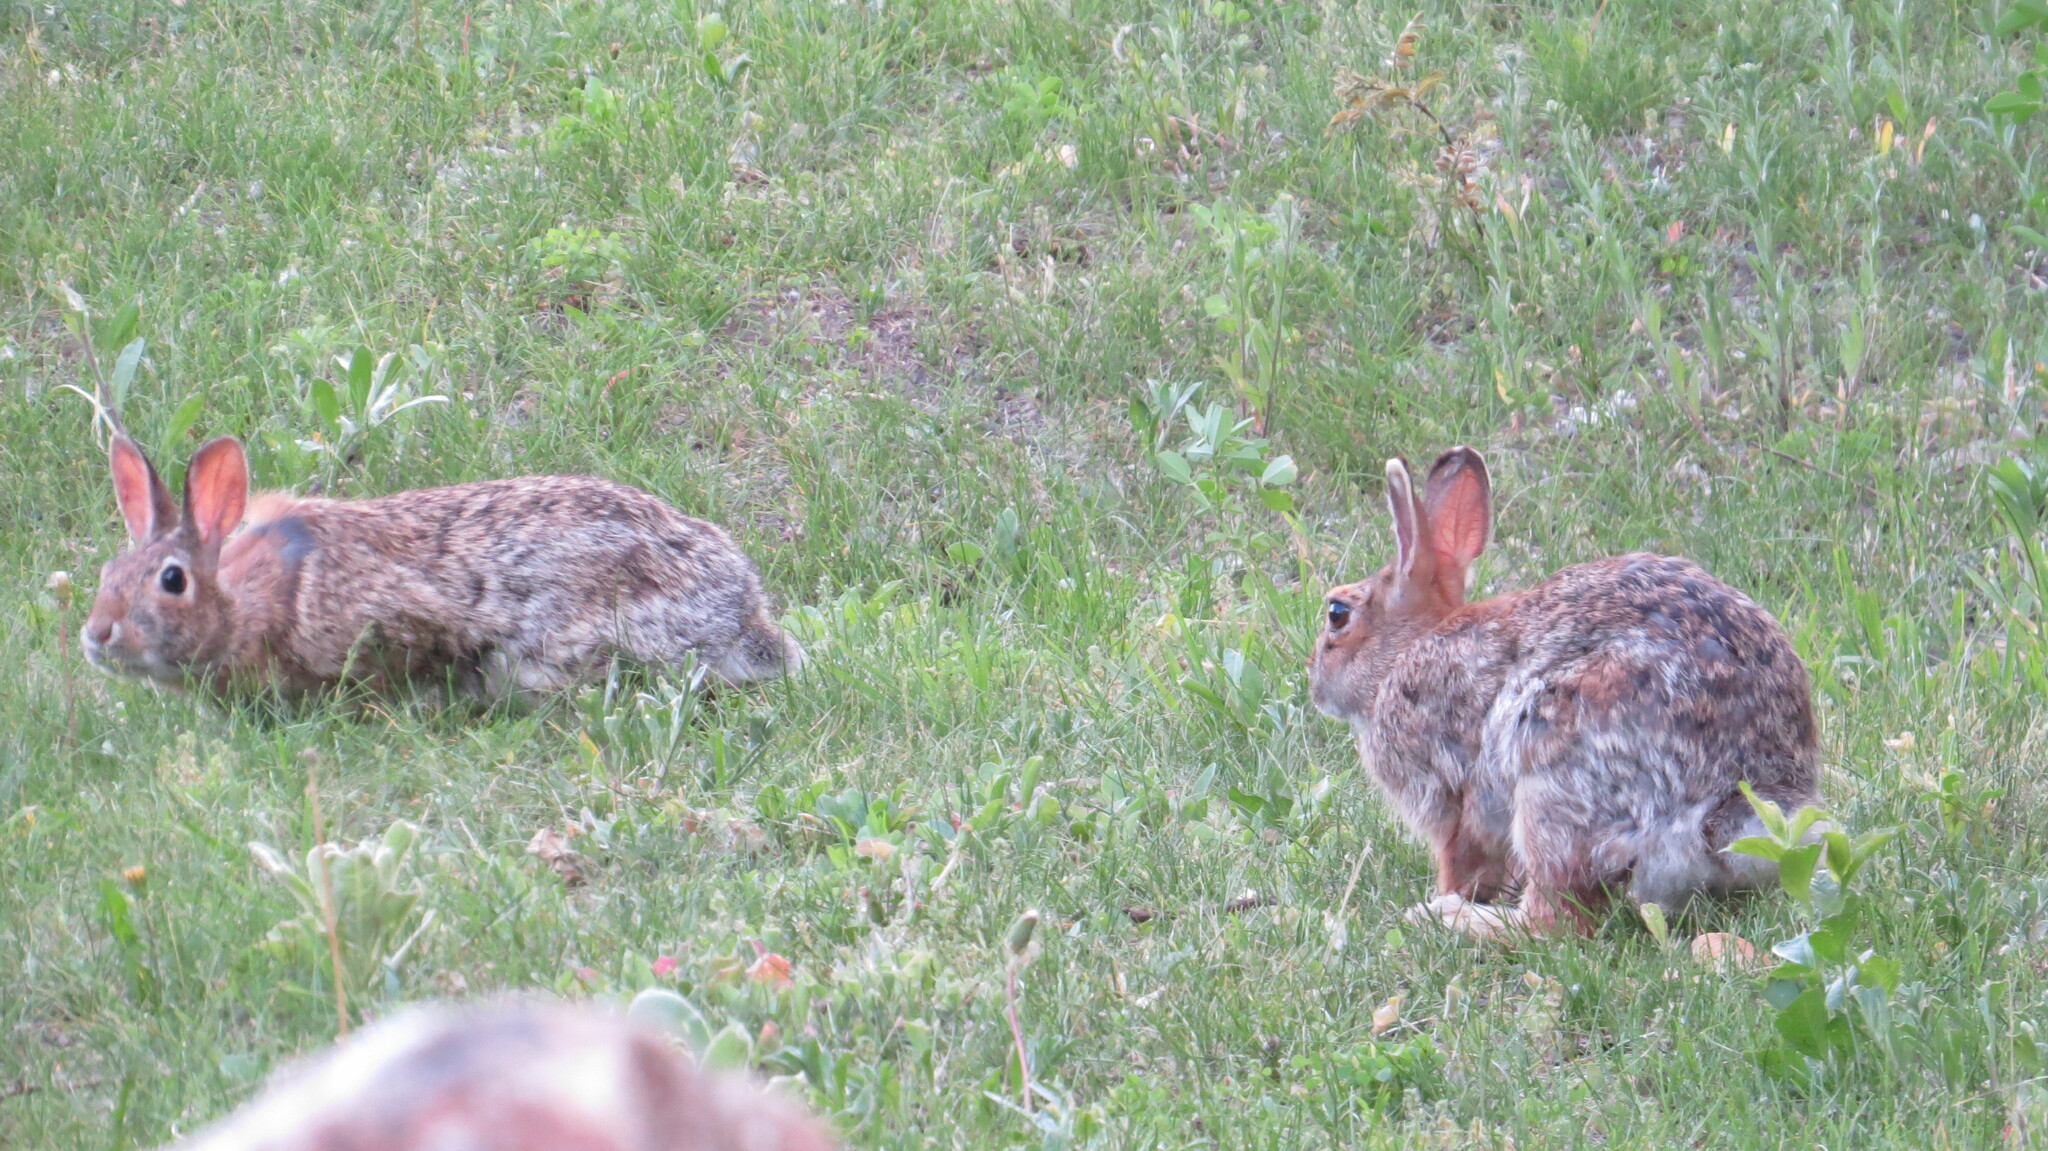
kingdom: Animalia
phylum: Chordata
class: Mammalia
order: Lagomorpha
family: Leporidae
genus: Sylvilagus
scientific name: Sylvilagus floridanus
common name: Eastern cottontail
